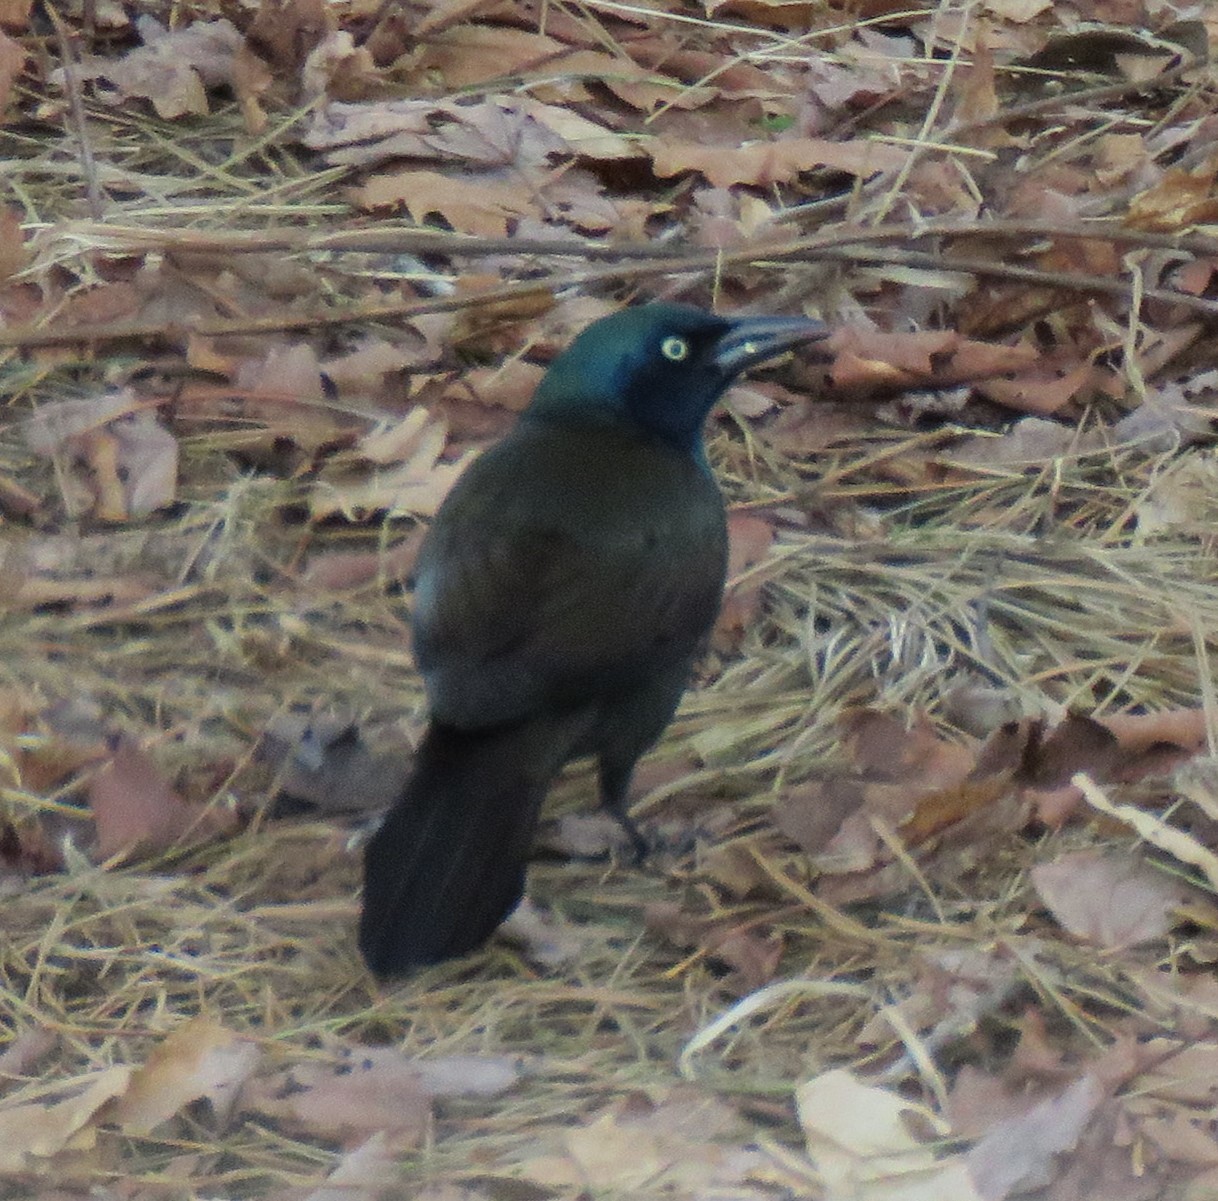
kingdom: Animalia
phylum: Chordata
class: Aves
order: Passeriformes
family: Icteridae
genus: Quiscalus
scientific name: Quiscalus quiscula
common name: Common grackle
